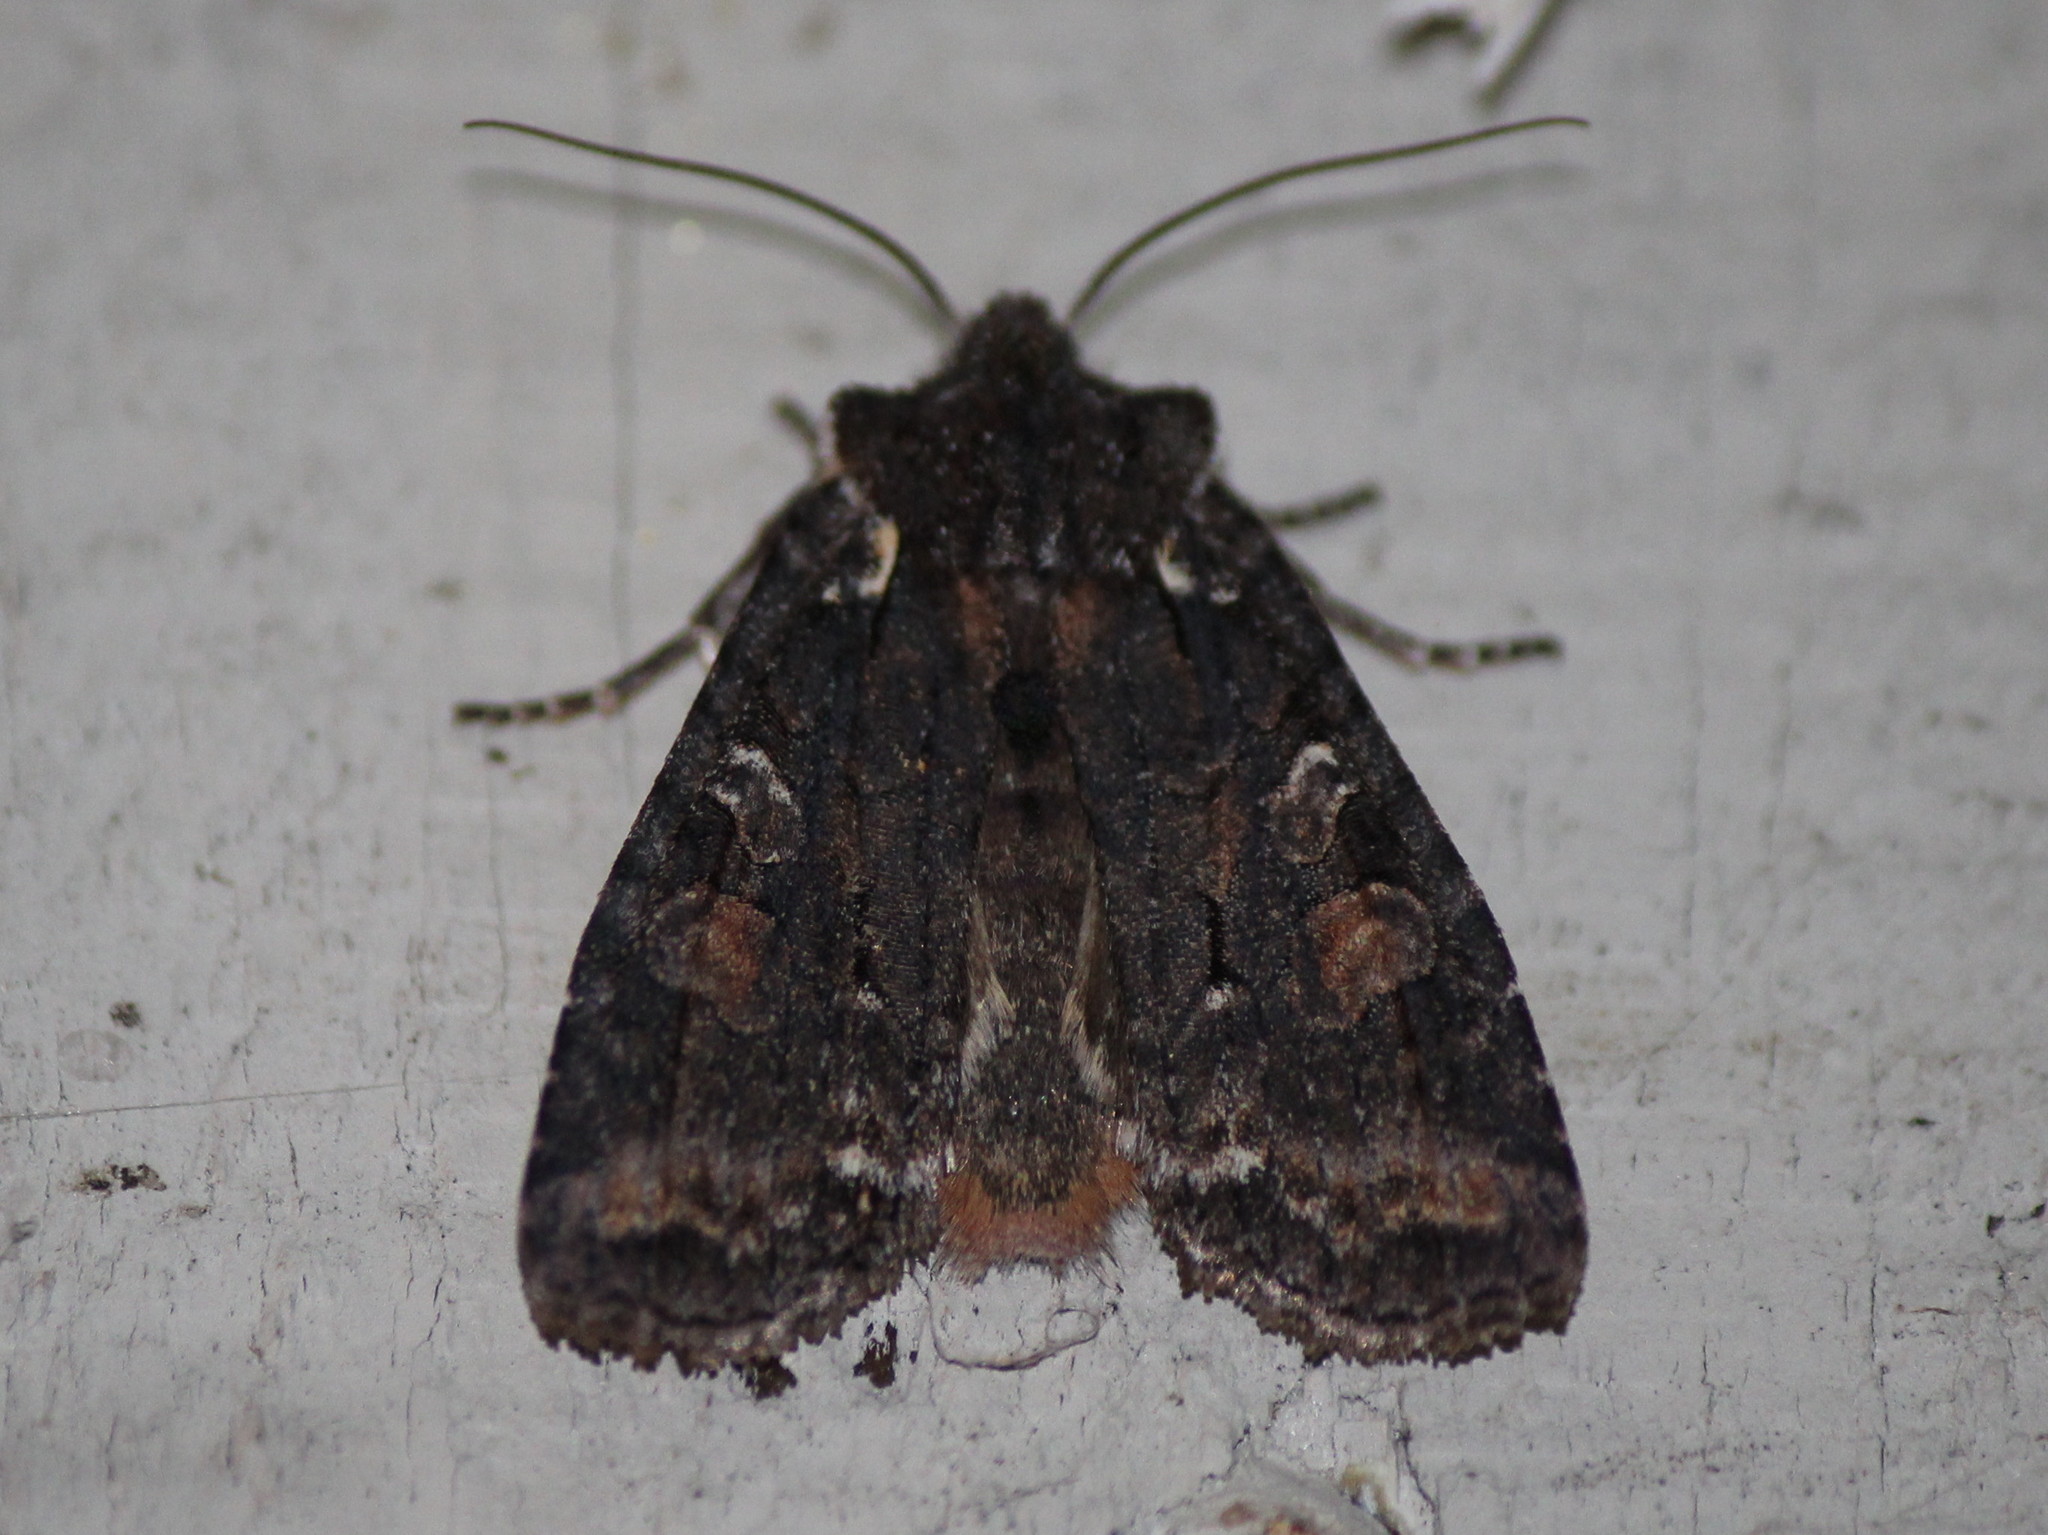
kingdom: Animalia
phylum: Arthropoda
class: Insecta
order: Lepidoptera
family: Noctuidae
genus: Lithophane
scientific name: Lithophane pexata
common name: Plush-naped pinion moth
